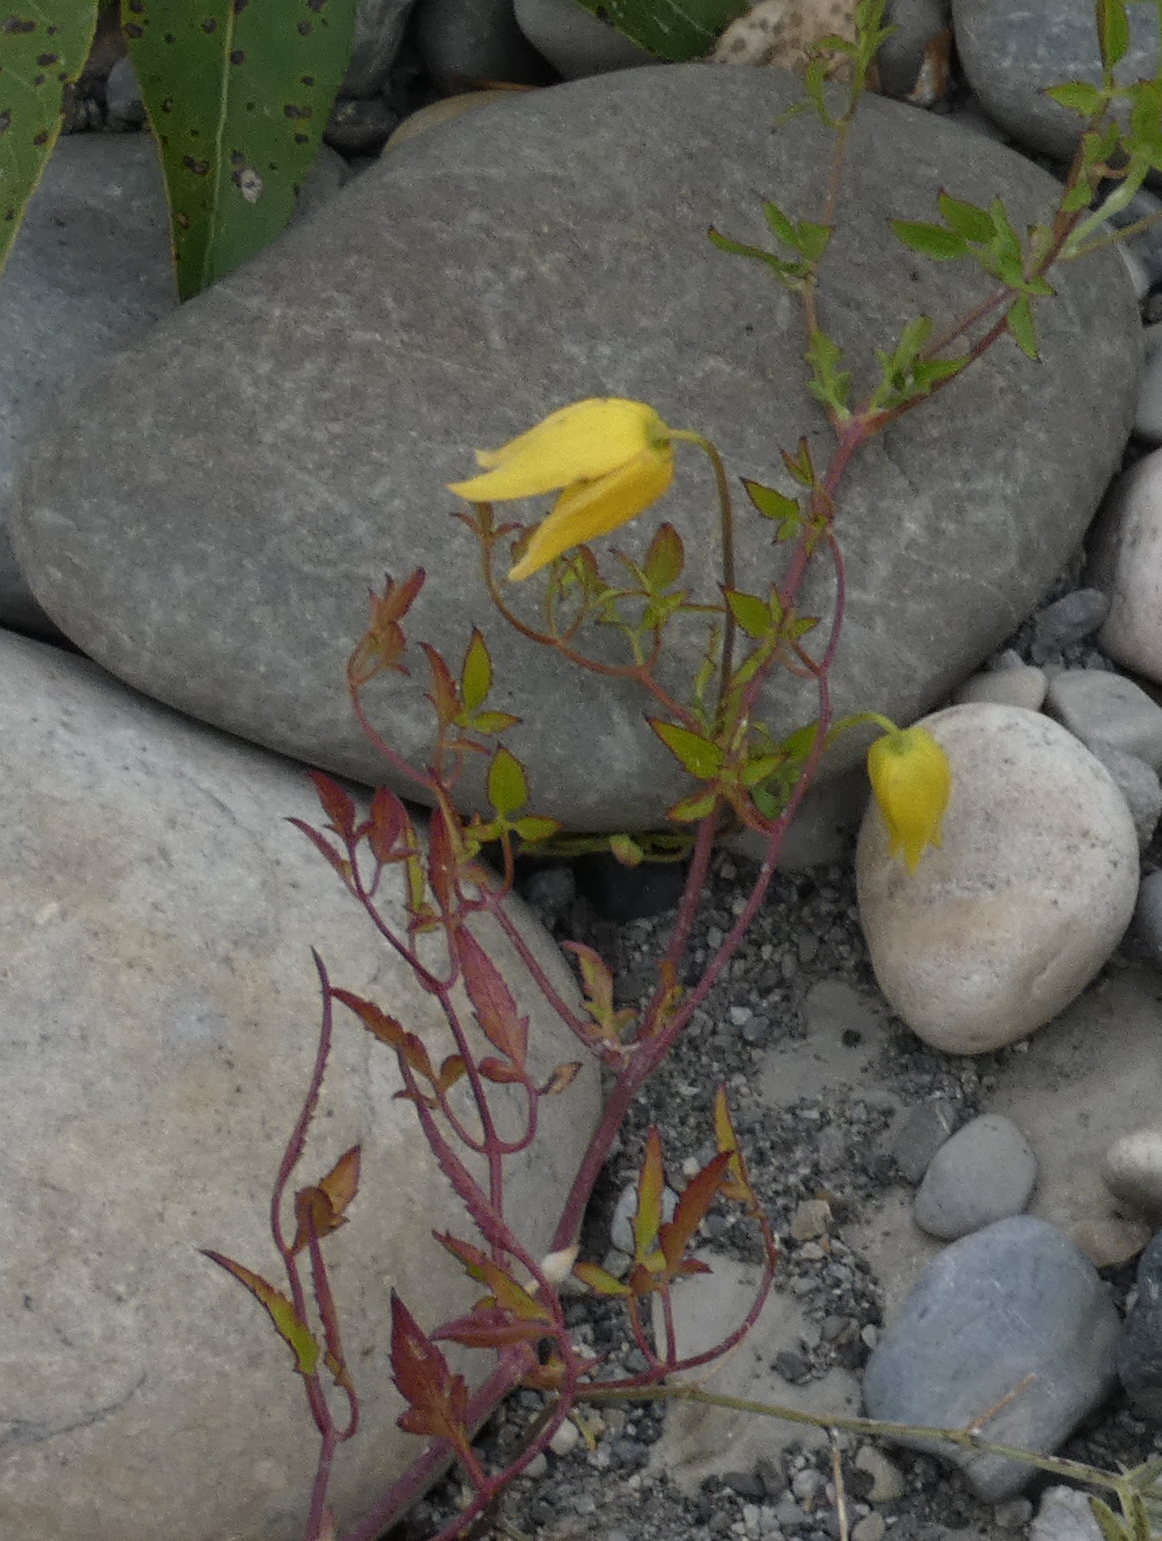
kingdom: Plantae
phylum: Tracheophyta
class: Magnoliopsida
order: Ranunculales
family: Ranunculaceae
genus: Clematis
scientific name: Clematis tangutica
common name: Orange-peel clematis
